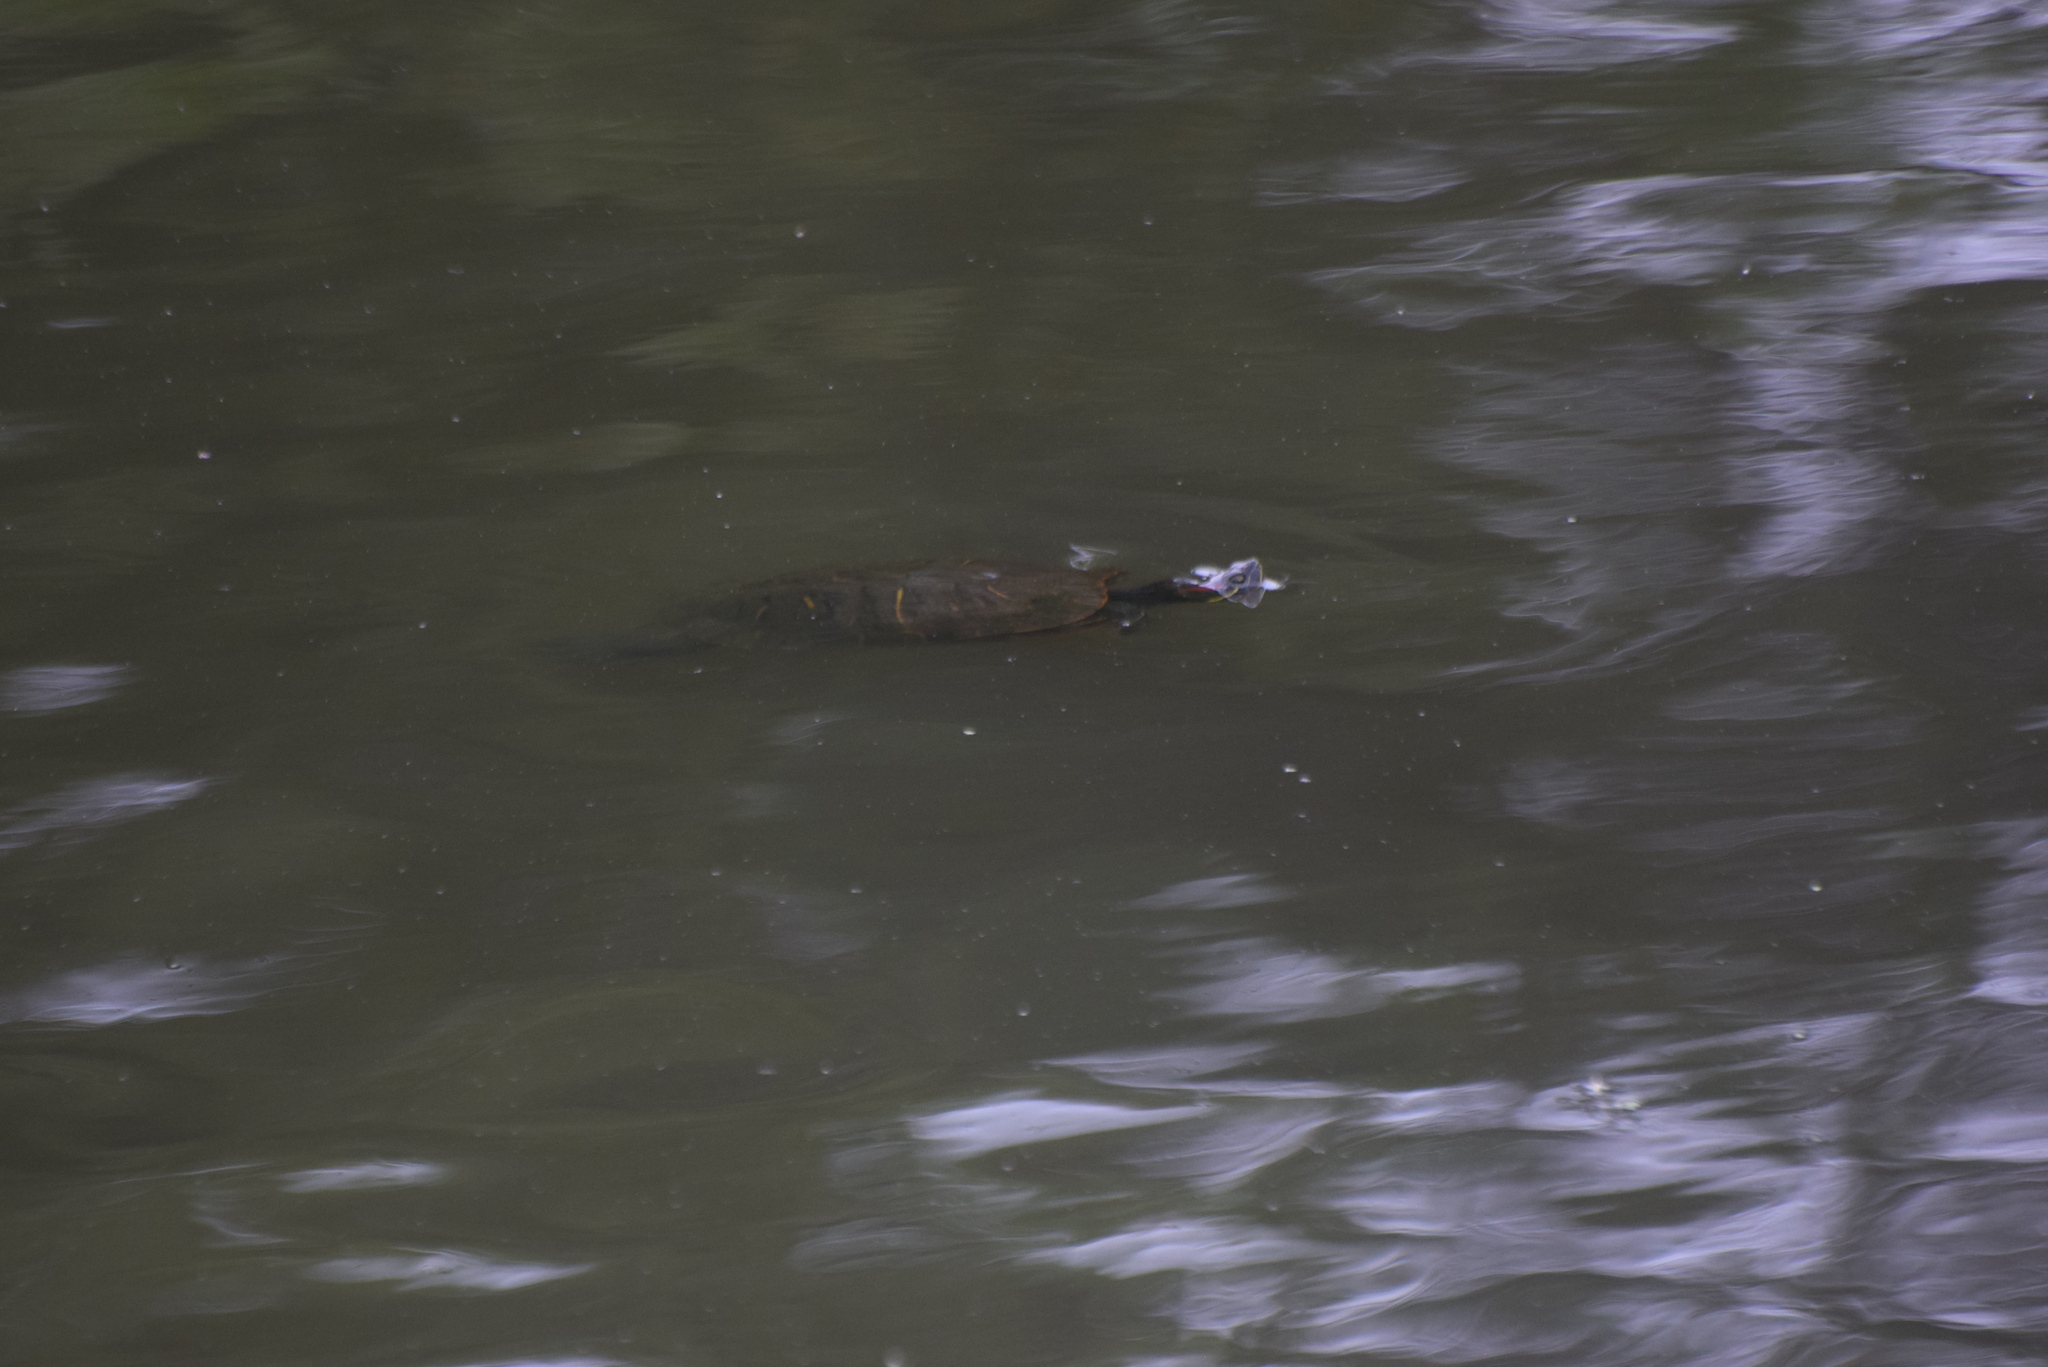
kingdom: Animalia
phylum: Chordata
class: Testudines
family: Emydidae
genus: Trachemys
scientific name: Trachemys scripta
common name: Slider
